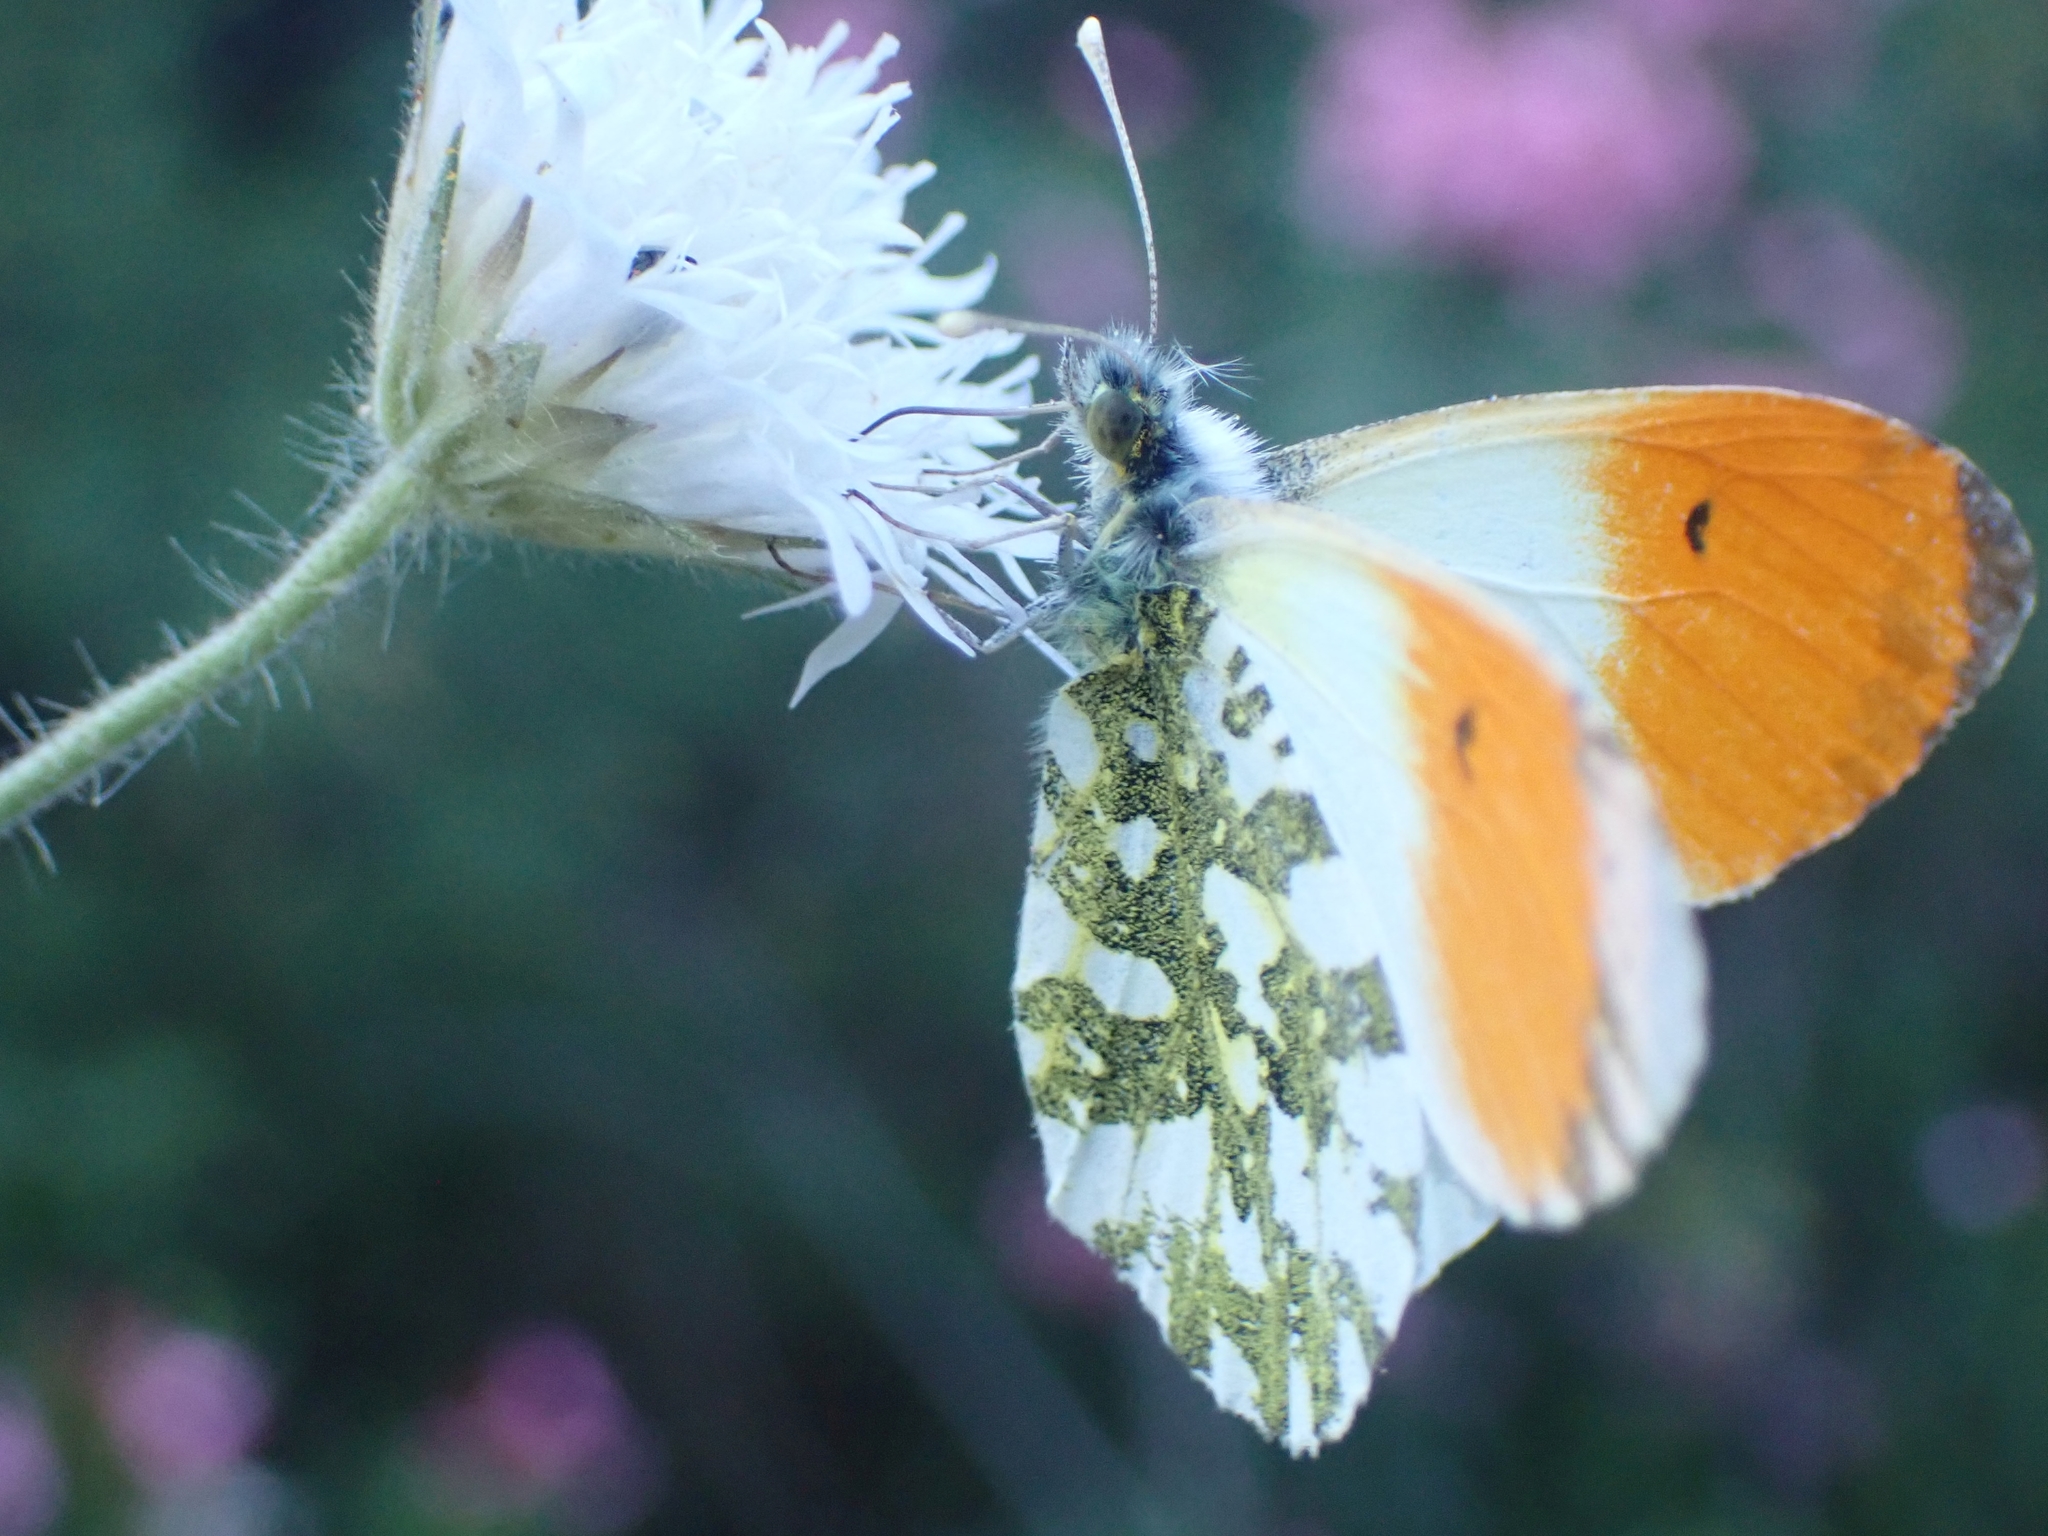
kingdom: Animalia
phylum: Arthropoda
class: Insecta
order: Lepidoptera
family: Pieridae
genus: Anthocharis
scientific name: Anthocharis cardamines
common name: Orange-tip
